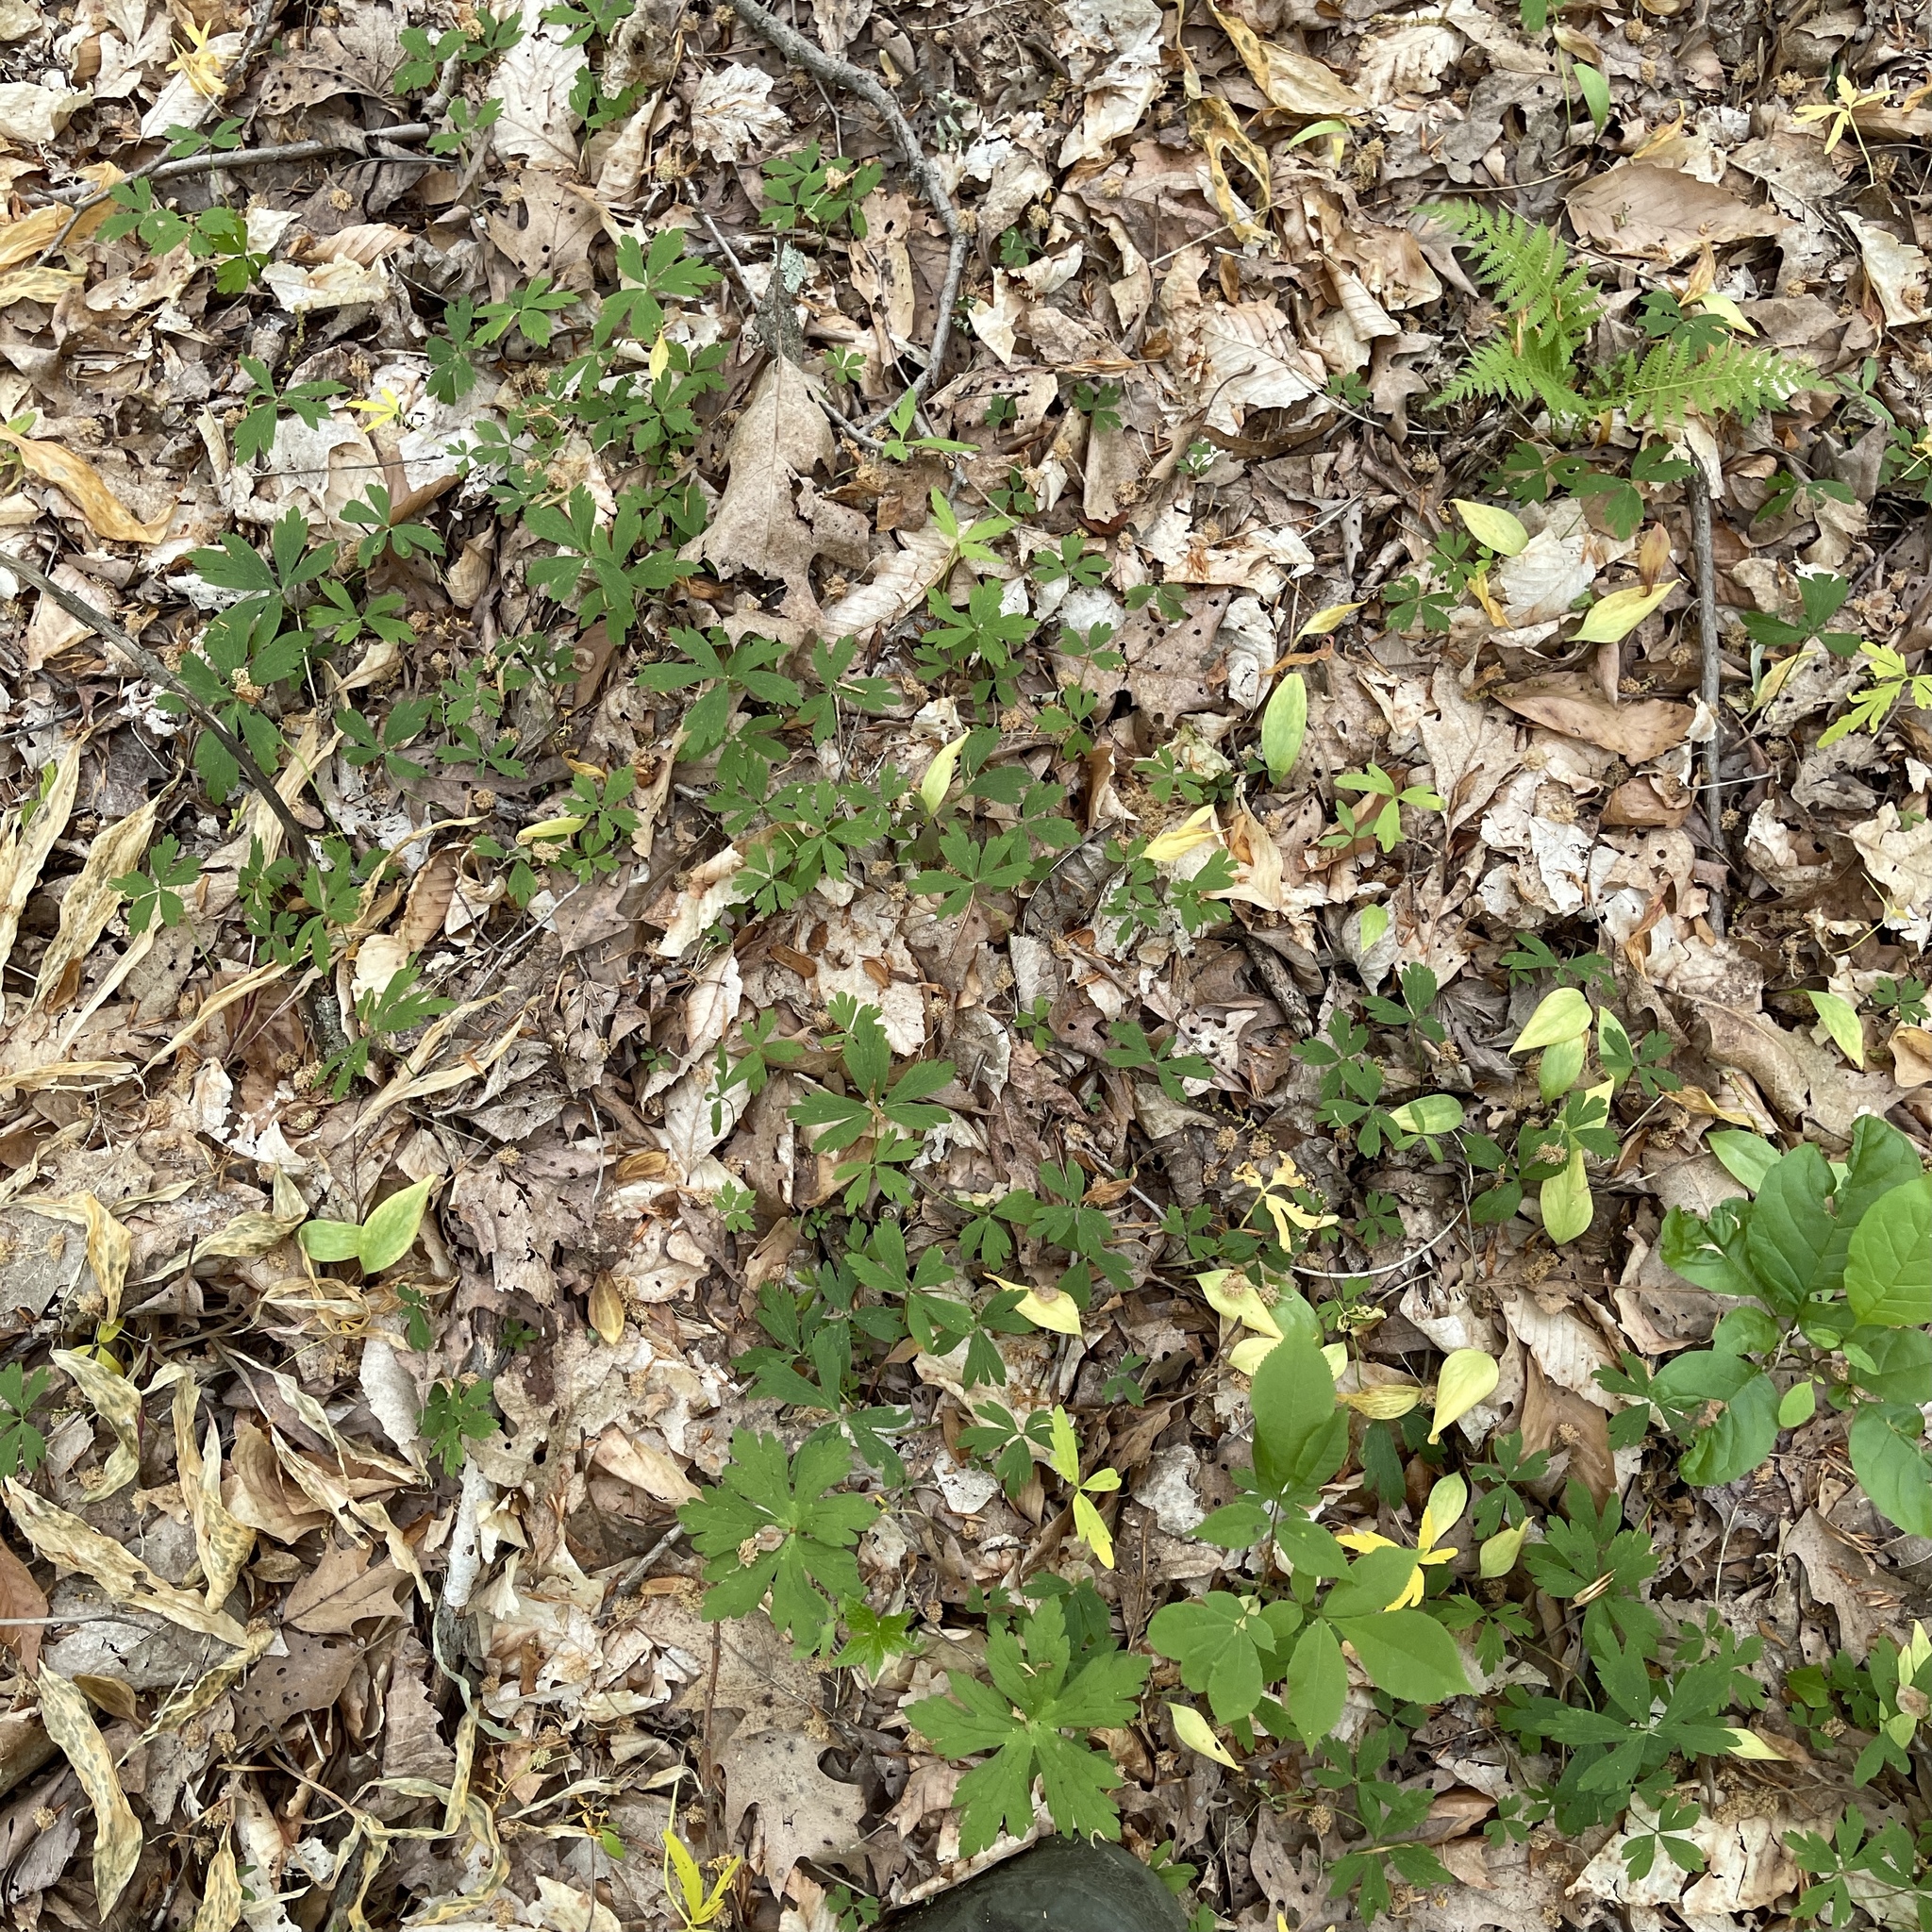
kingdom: Plantae
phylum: Tracheophyta
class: Magnoliopsida
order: Ranunculales
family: Ranunculaceae
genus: Anemone
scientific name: Anemone quinquefolia
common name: Wood anemone
